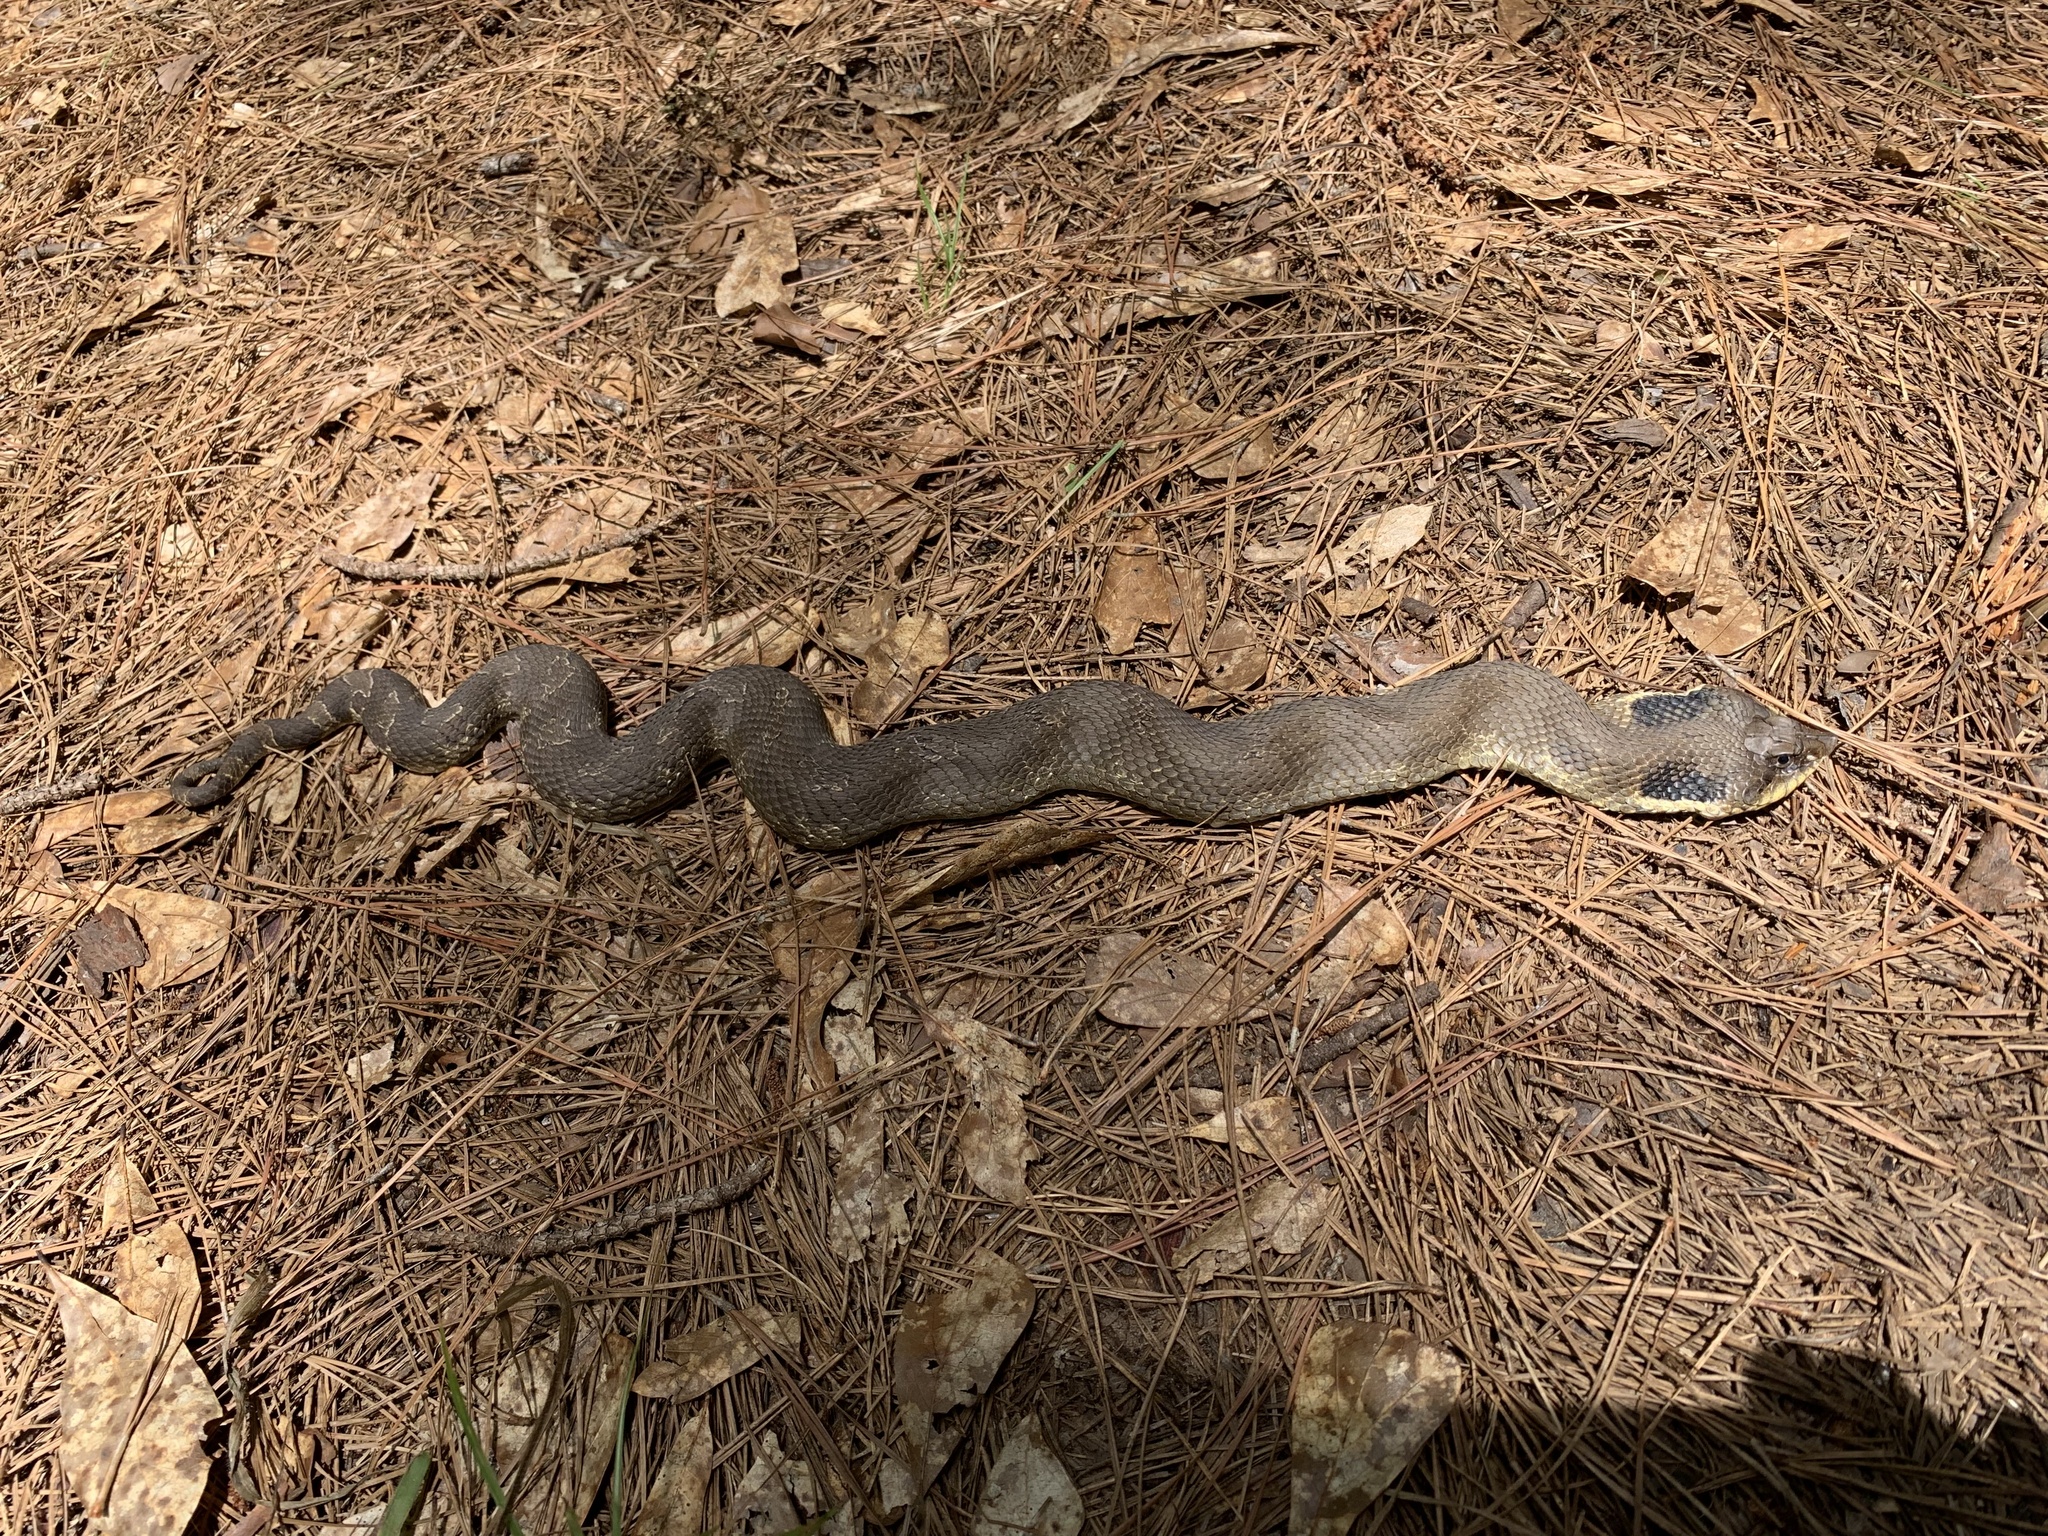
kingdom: Animalia
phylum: Chordata
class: Squamata
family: Colubridae
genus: Heterodon
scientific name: Heterodon platirhinos
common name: Eastern hognose snake
